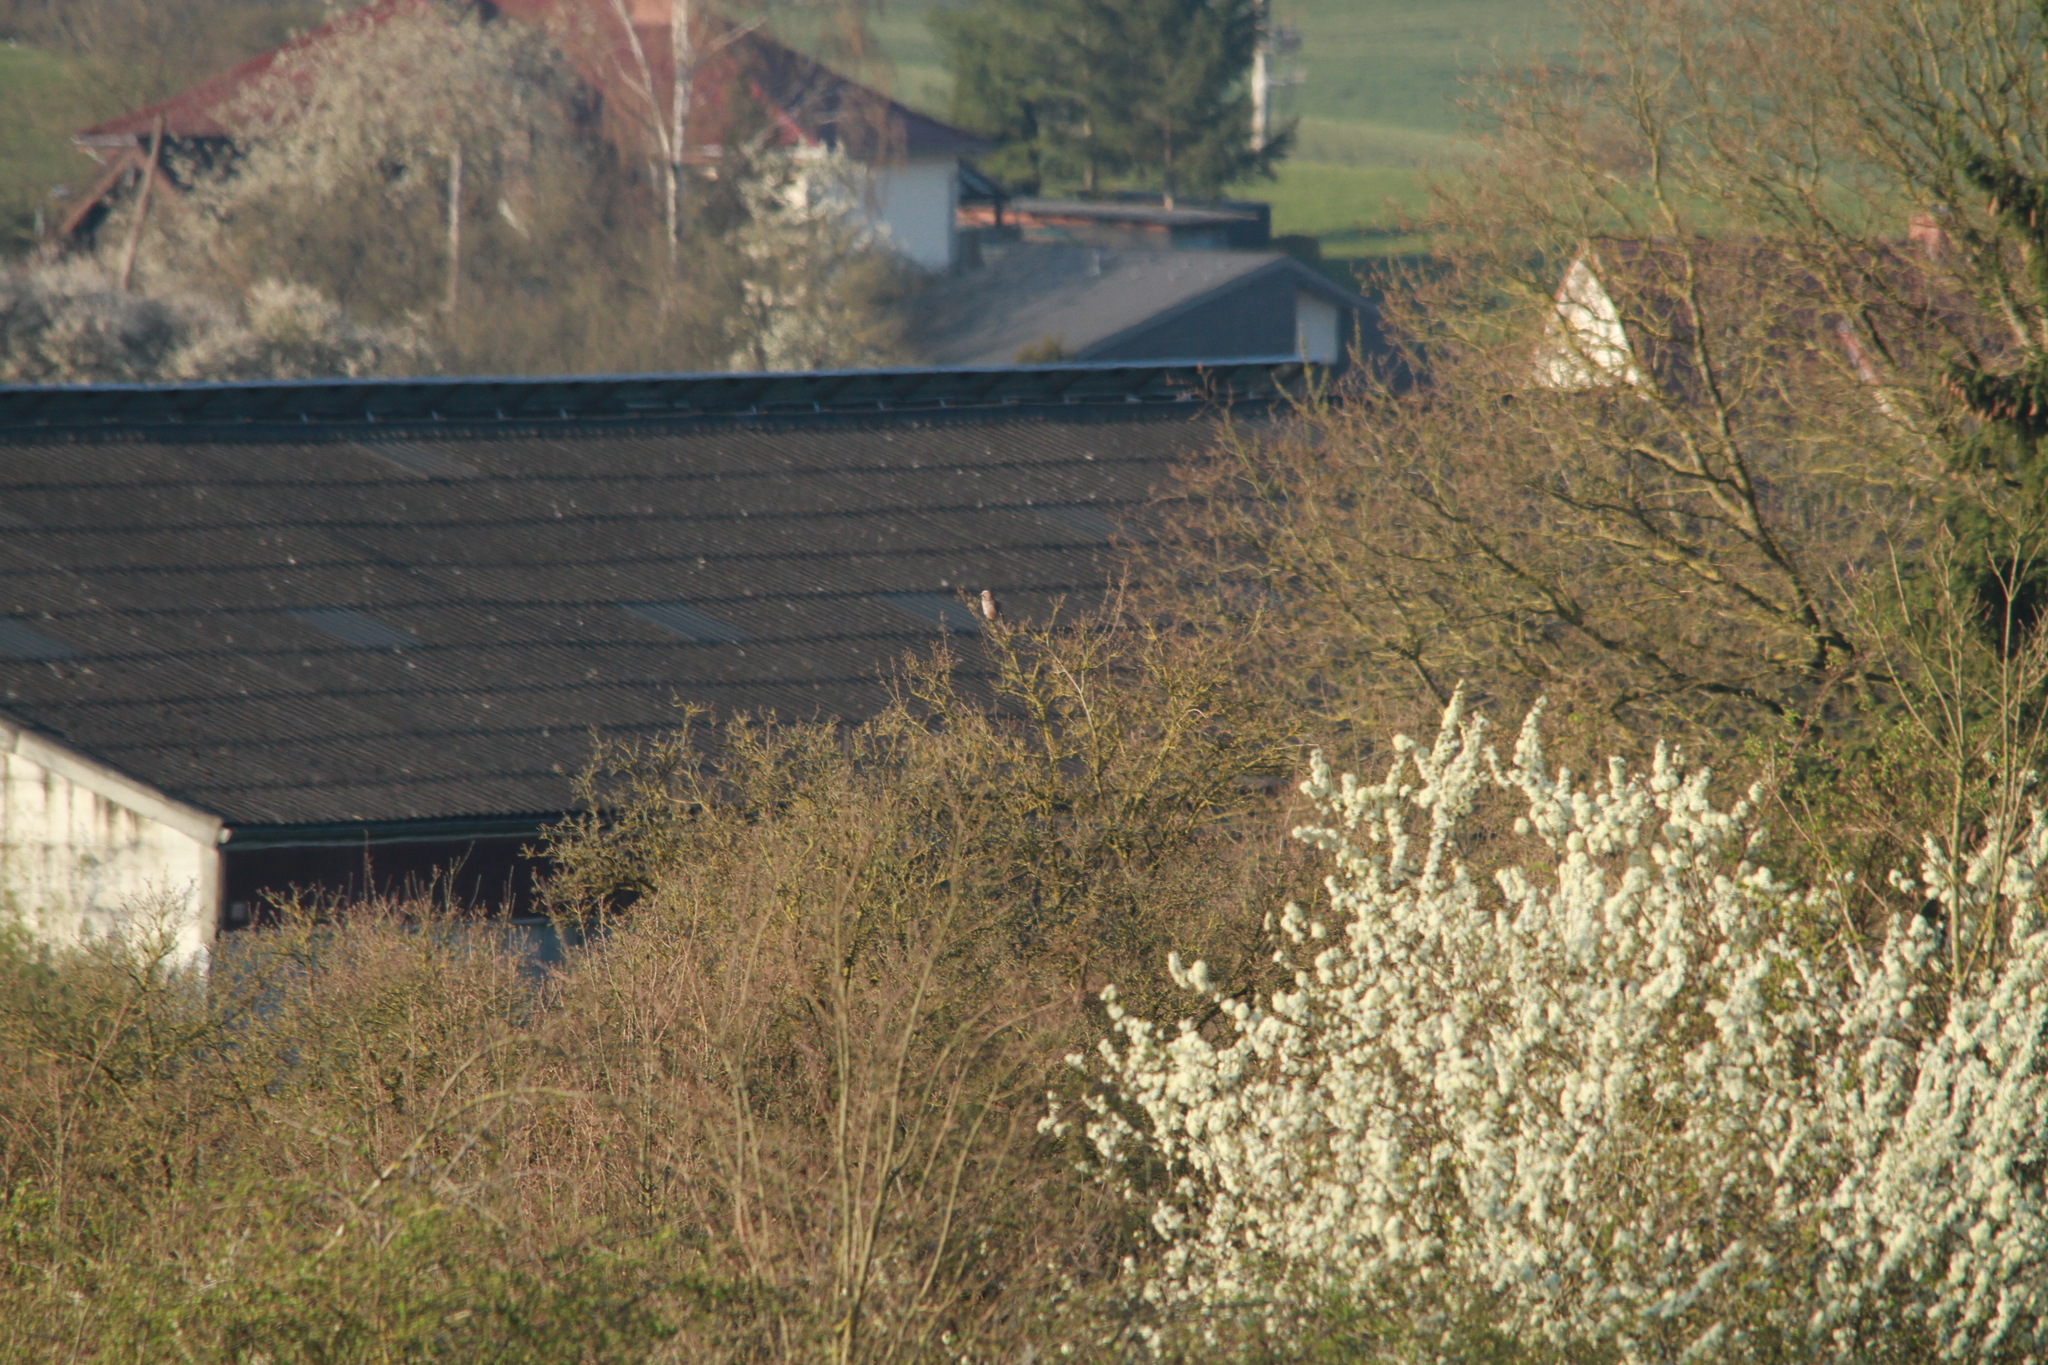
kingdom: Animalia
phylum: Chordata
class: Aves
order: Passeriformes
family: Corvidae
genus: Garrulus
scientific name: Garrulus glandarius
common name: Eurasian jay
